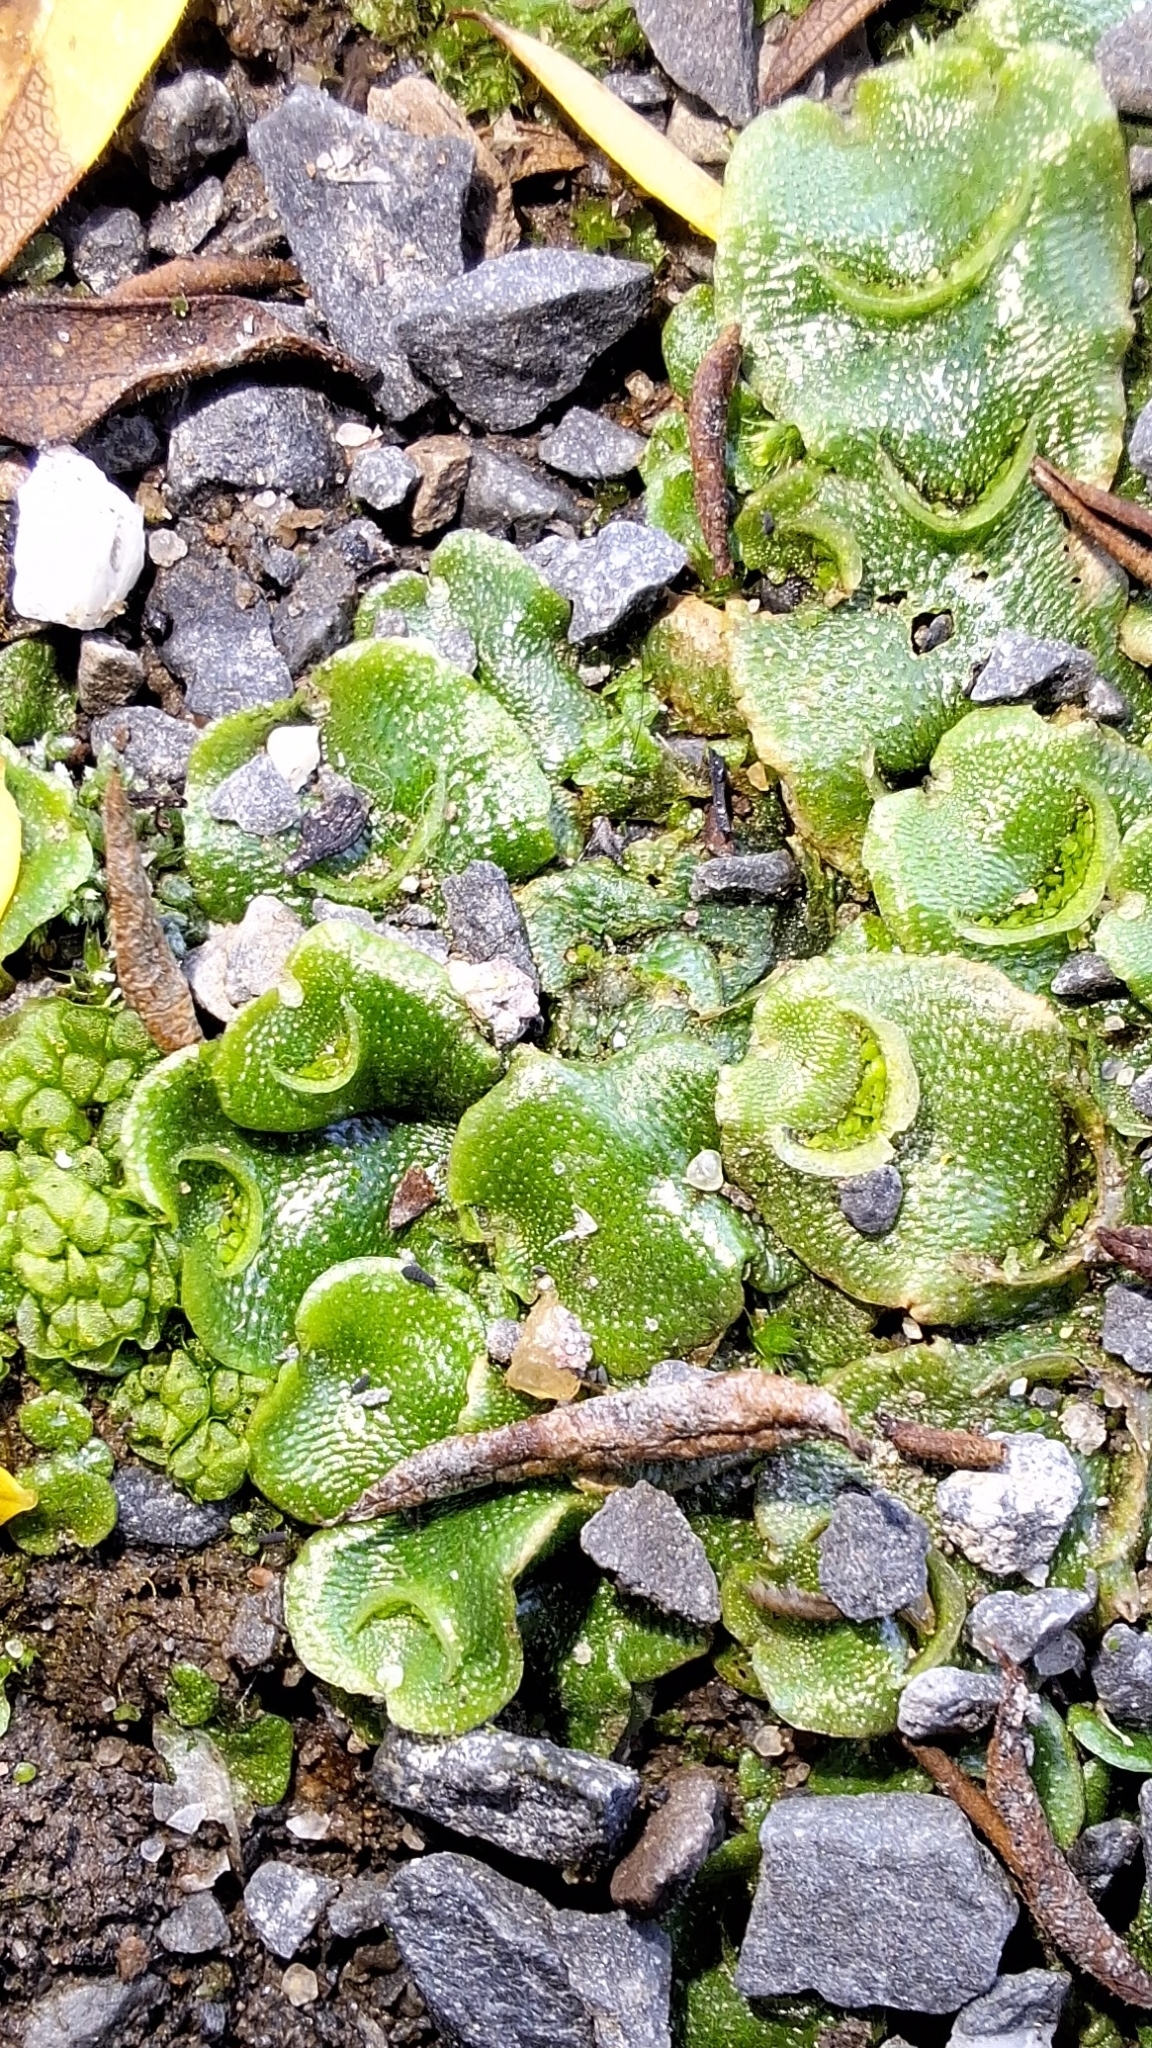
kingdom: Plantae
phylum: Marchantiophyta
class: Marchantiopsida
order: Lunulariales
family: Lunulariaceae
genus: Lunularia
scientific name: Lunularia cruciata
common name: Crescent-cup liverwort
